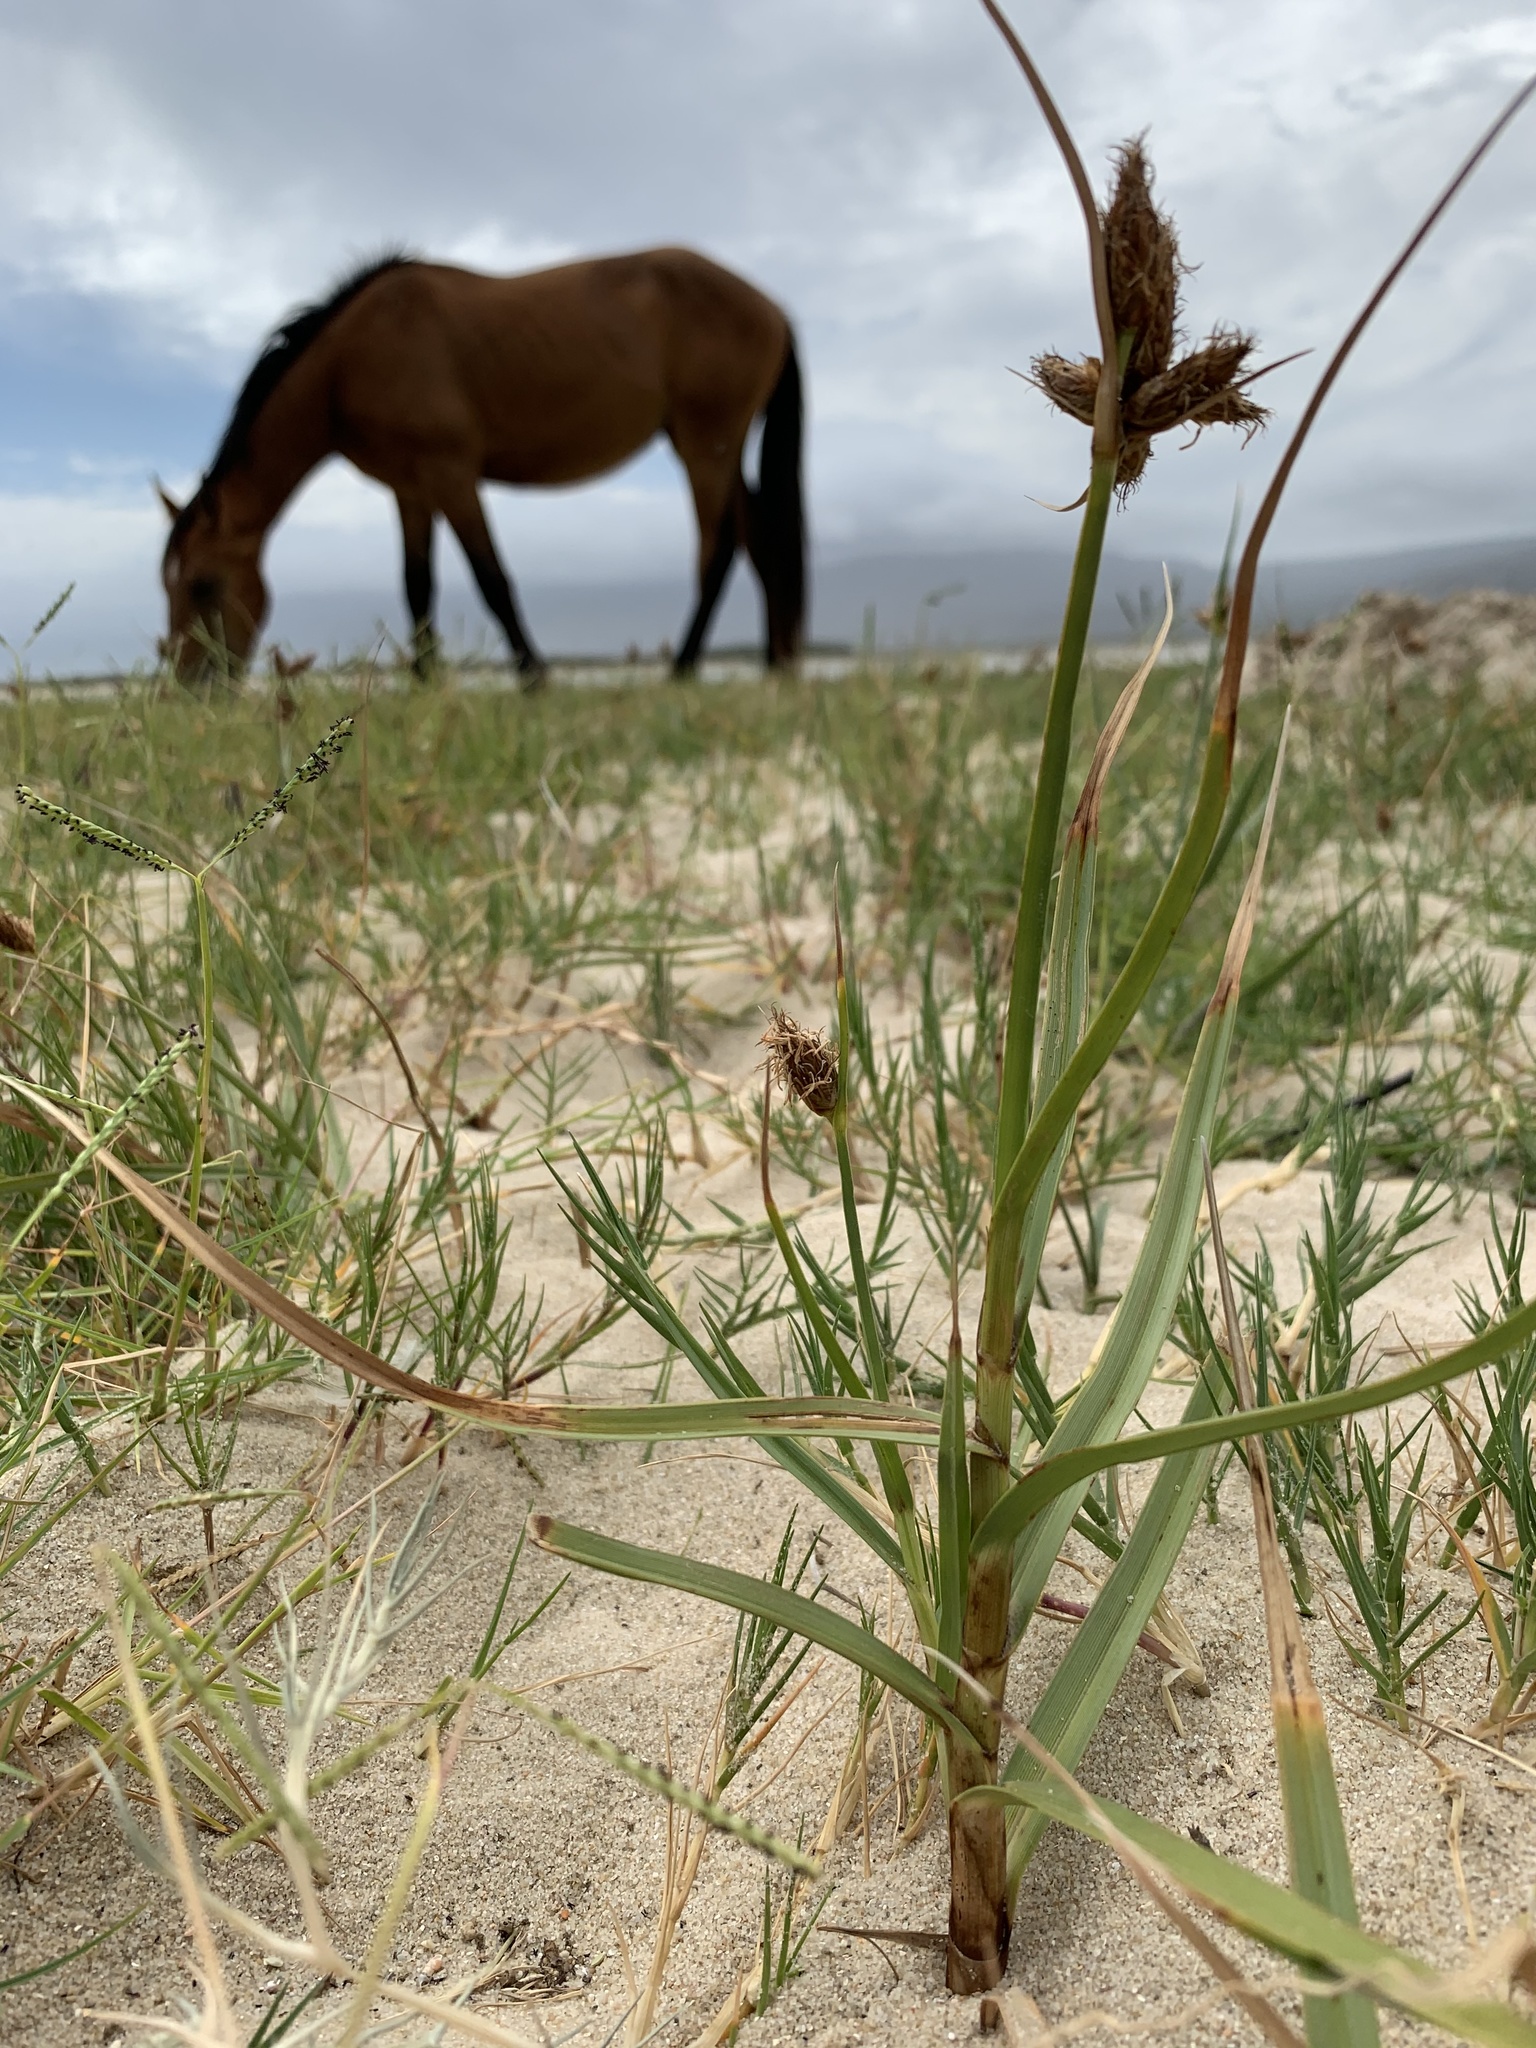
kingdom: Plantae
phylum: Tracheophyta
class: Liliopsida
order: Poales
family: Cyperaceae
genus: Bolboschoenus
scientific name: Bolboschoenus maritimus
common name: Sea club-rush
